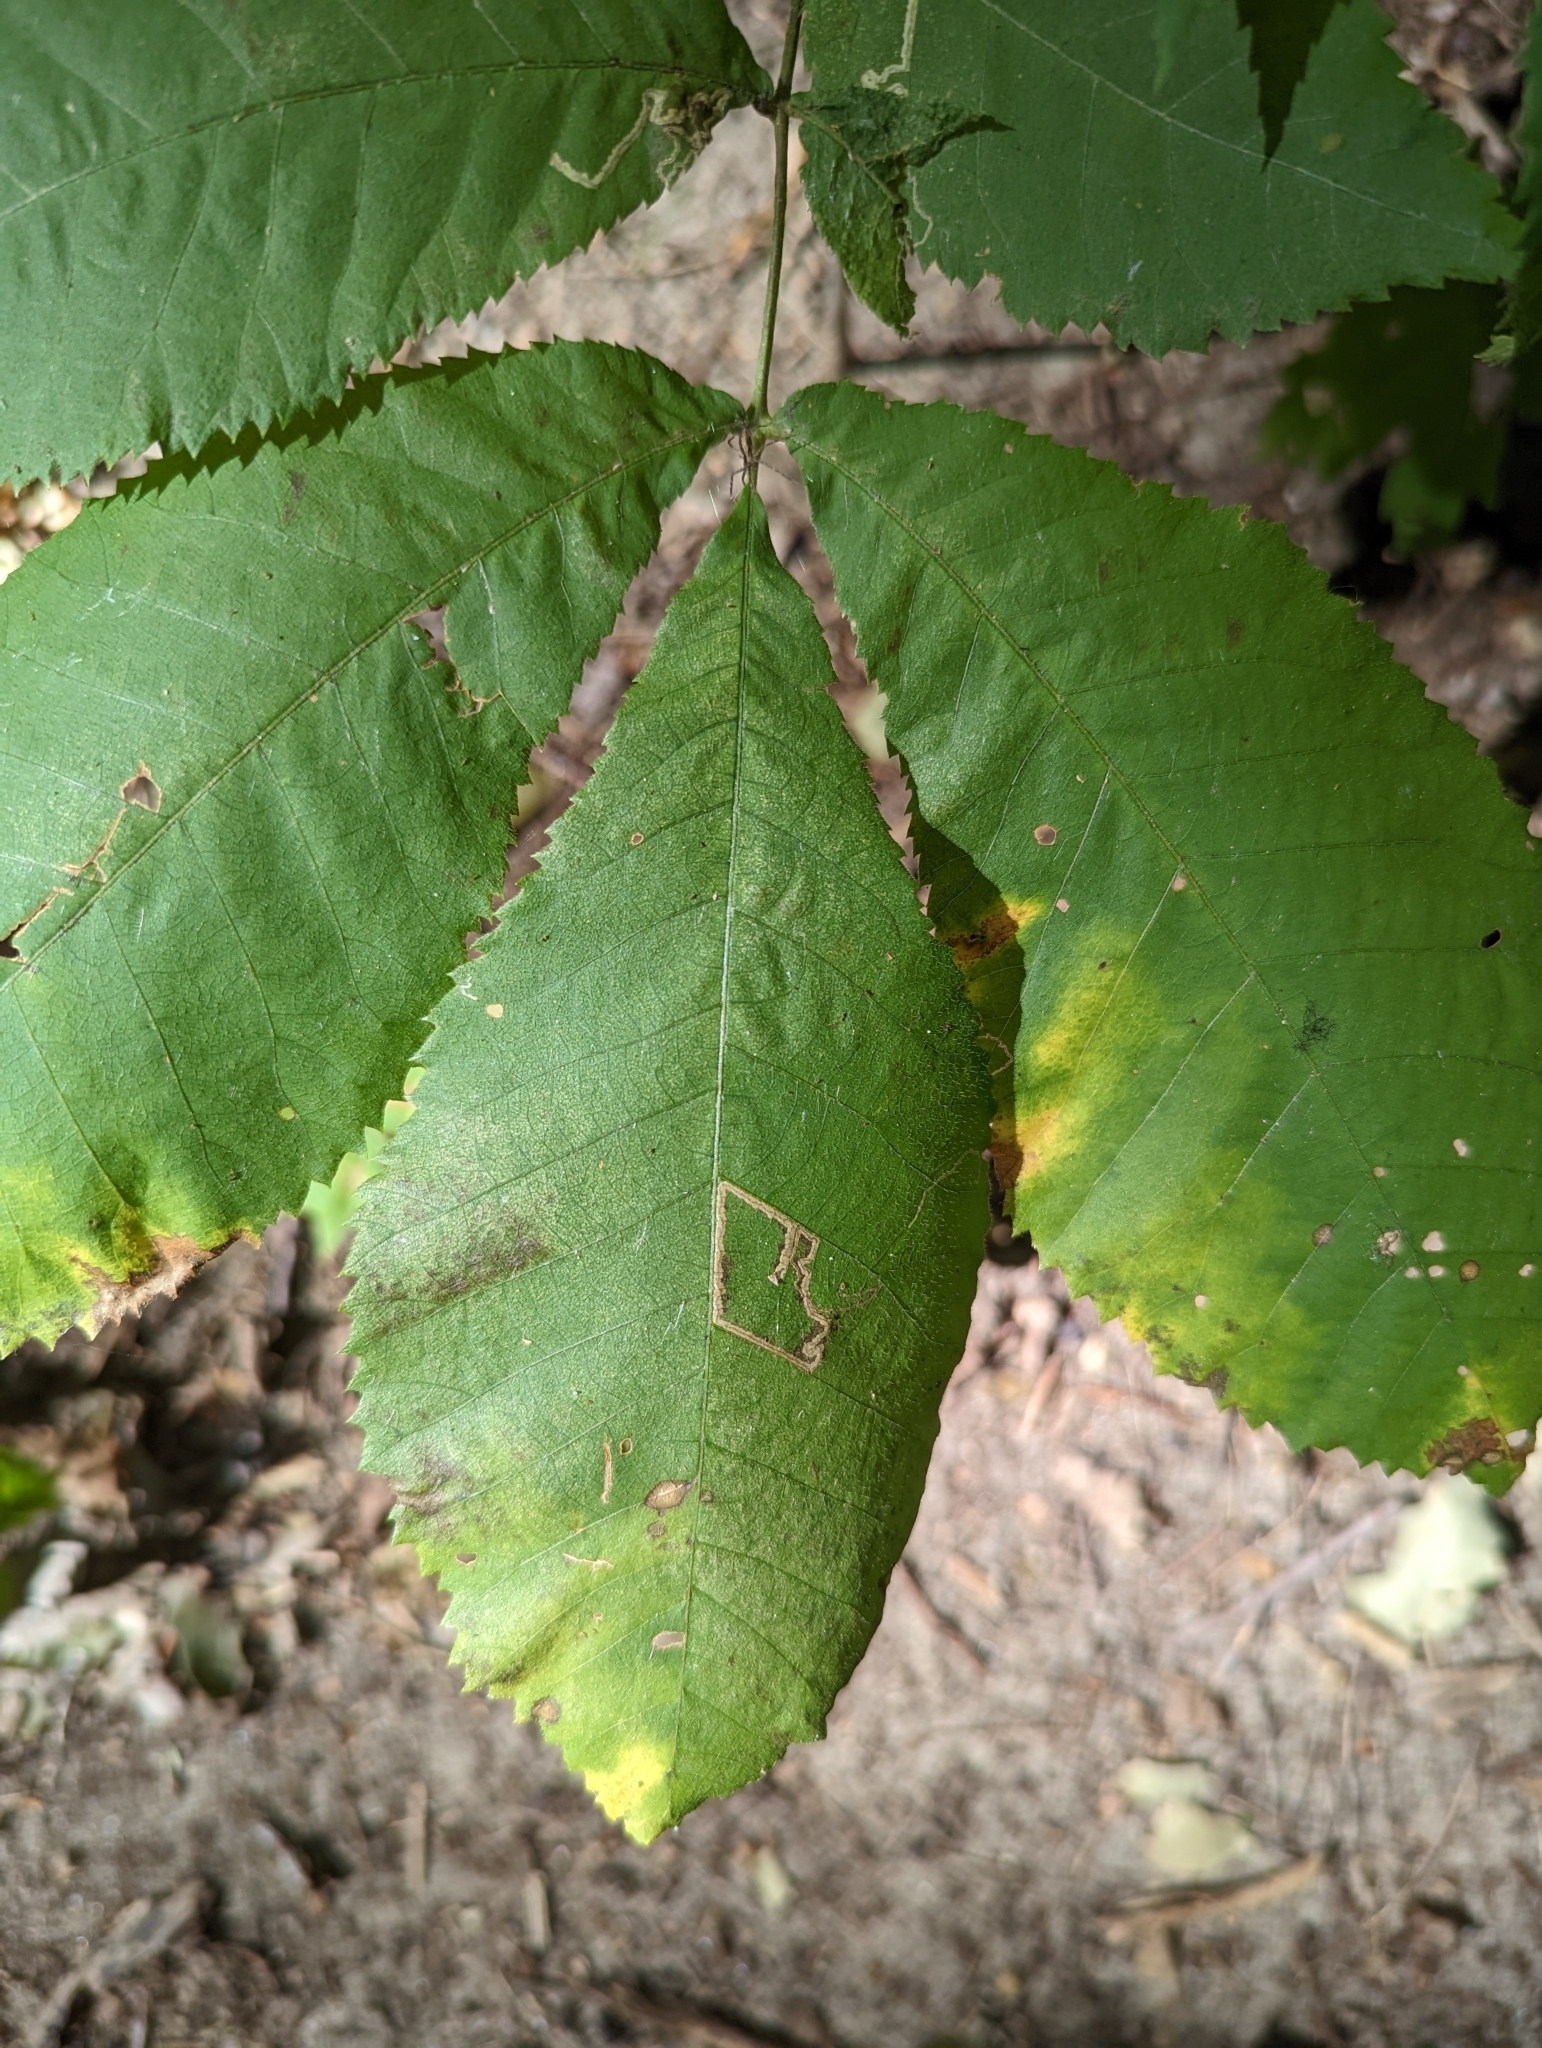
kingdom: Animalia
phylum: Arthropoda
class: Insecta
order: Lepidoptera
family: Nepticulidae
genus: Stigmella
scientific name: Stigmella caryaefoliella
